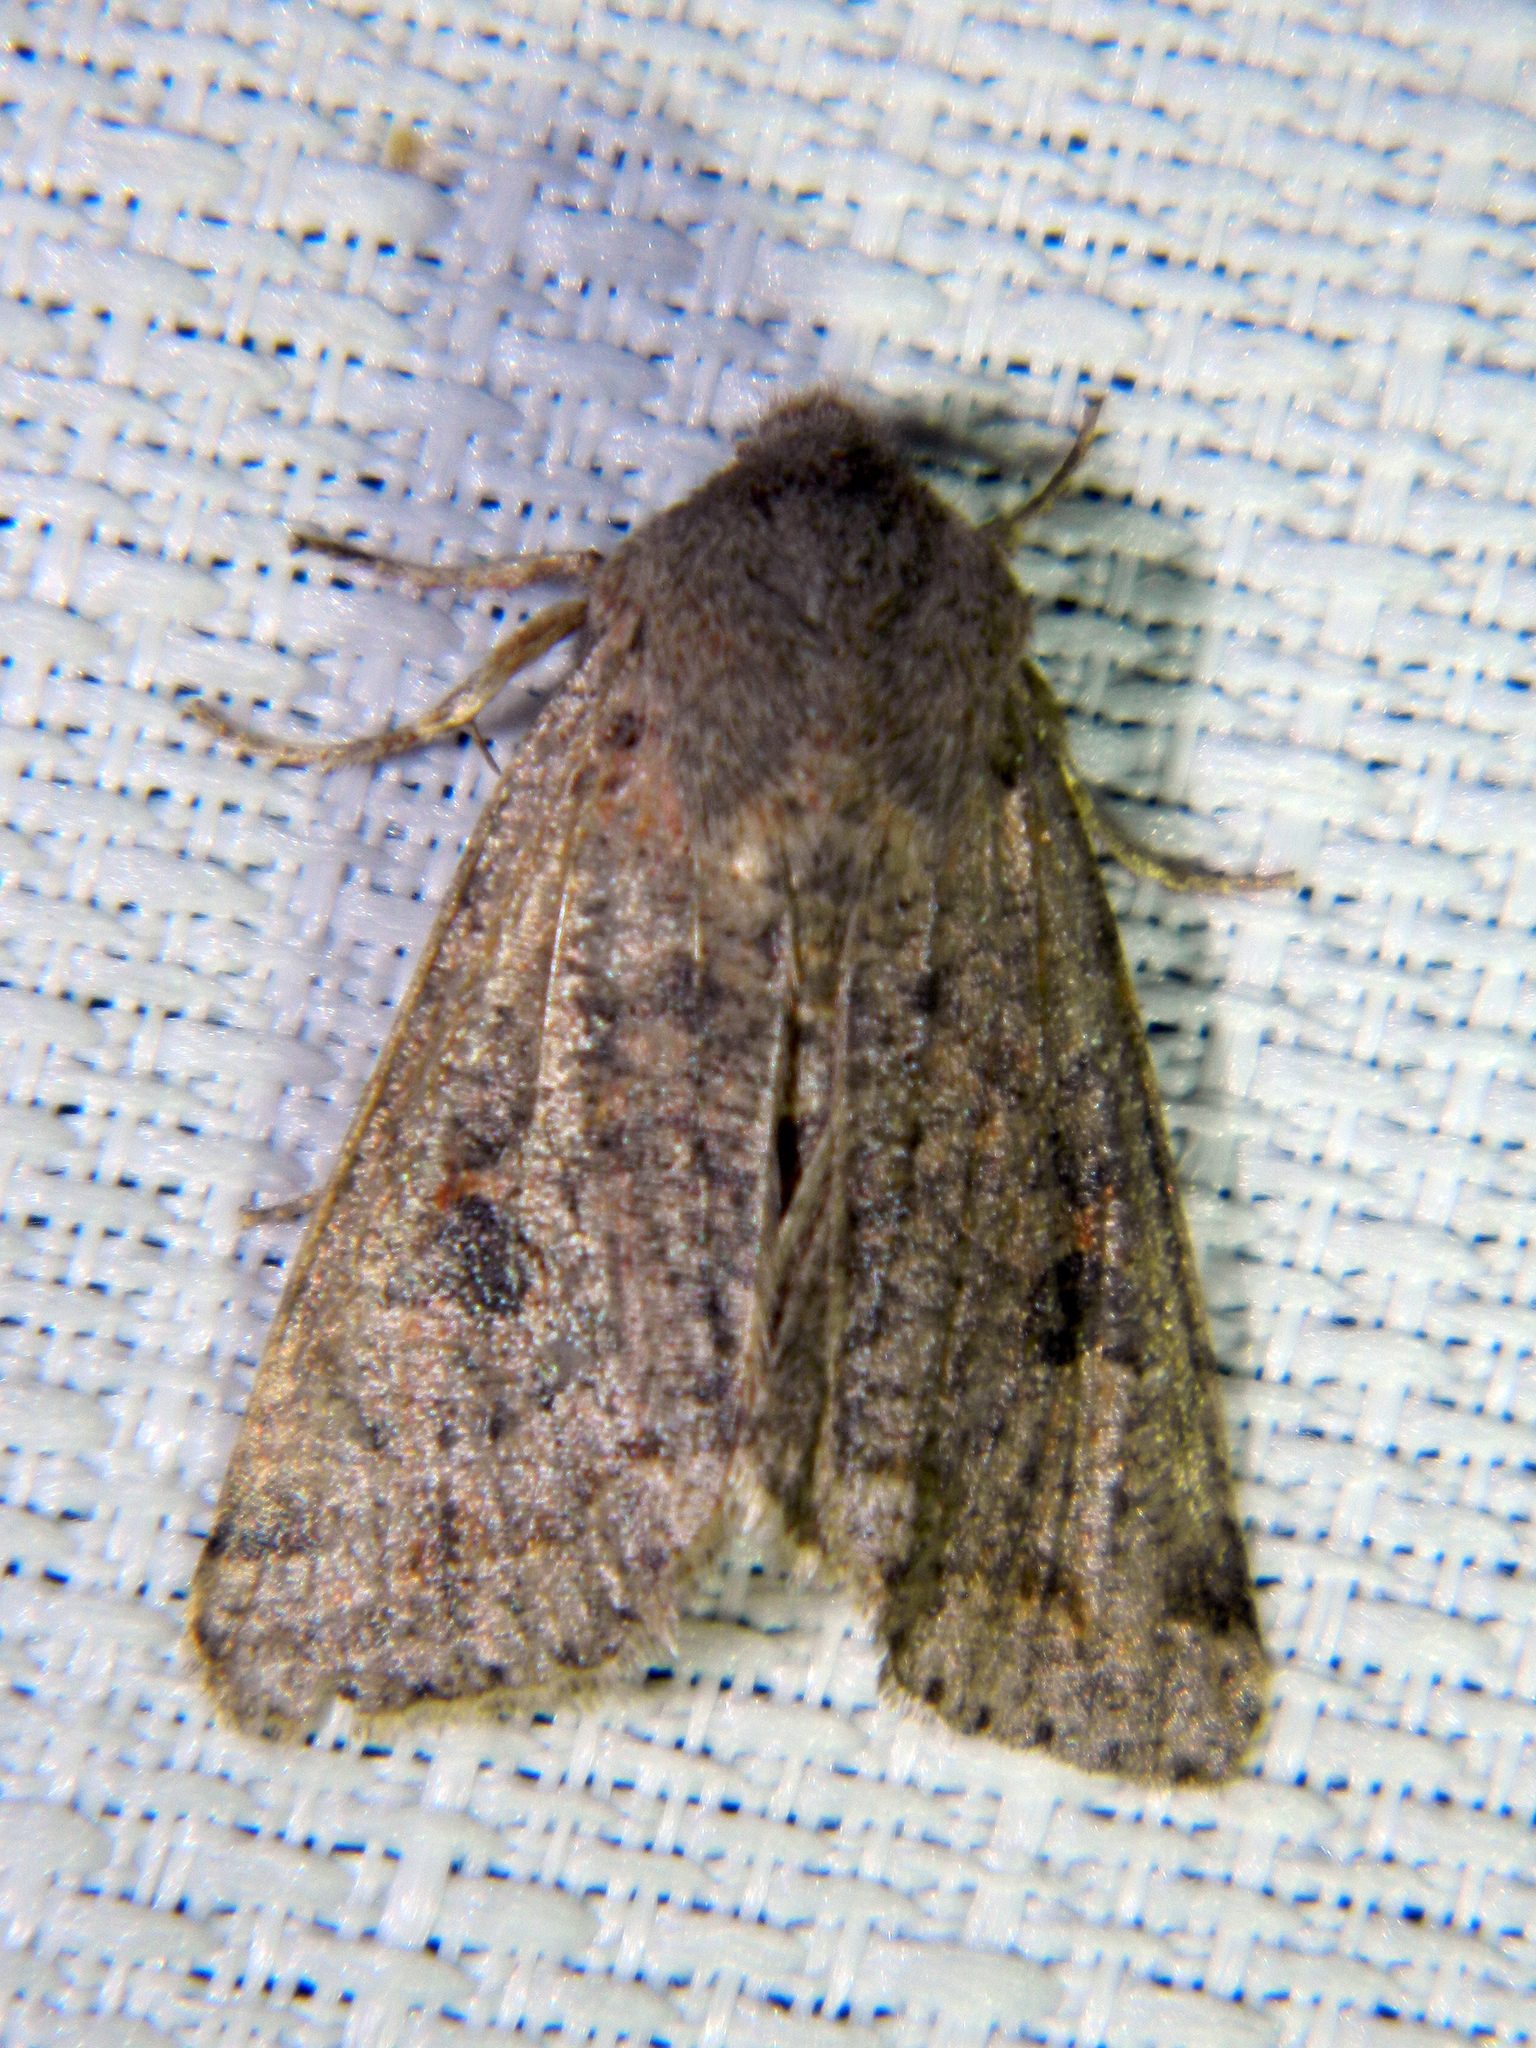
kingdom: Animalia
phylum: Arthropoda
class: Insecta
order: Lepidoptera
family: Noctuidae
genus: Orthosia
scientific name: Orthosia hibisci
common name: Green fruitworm
